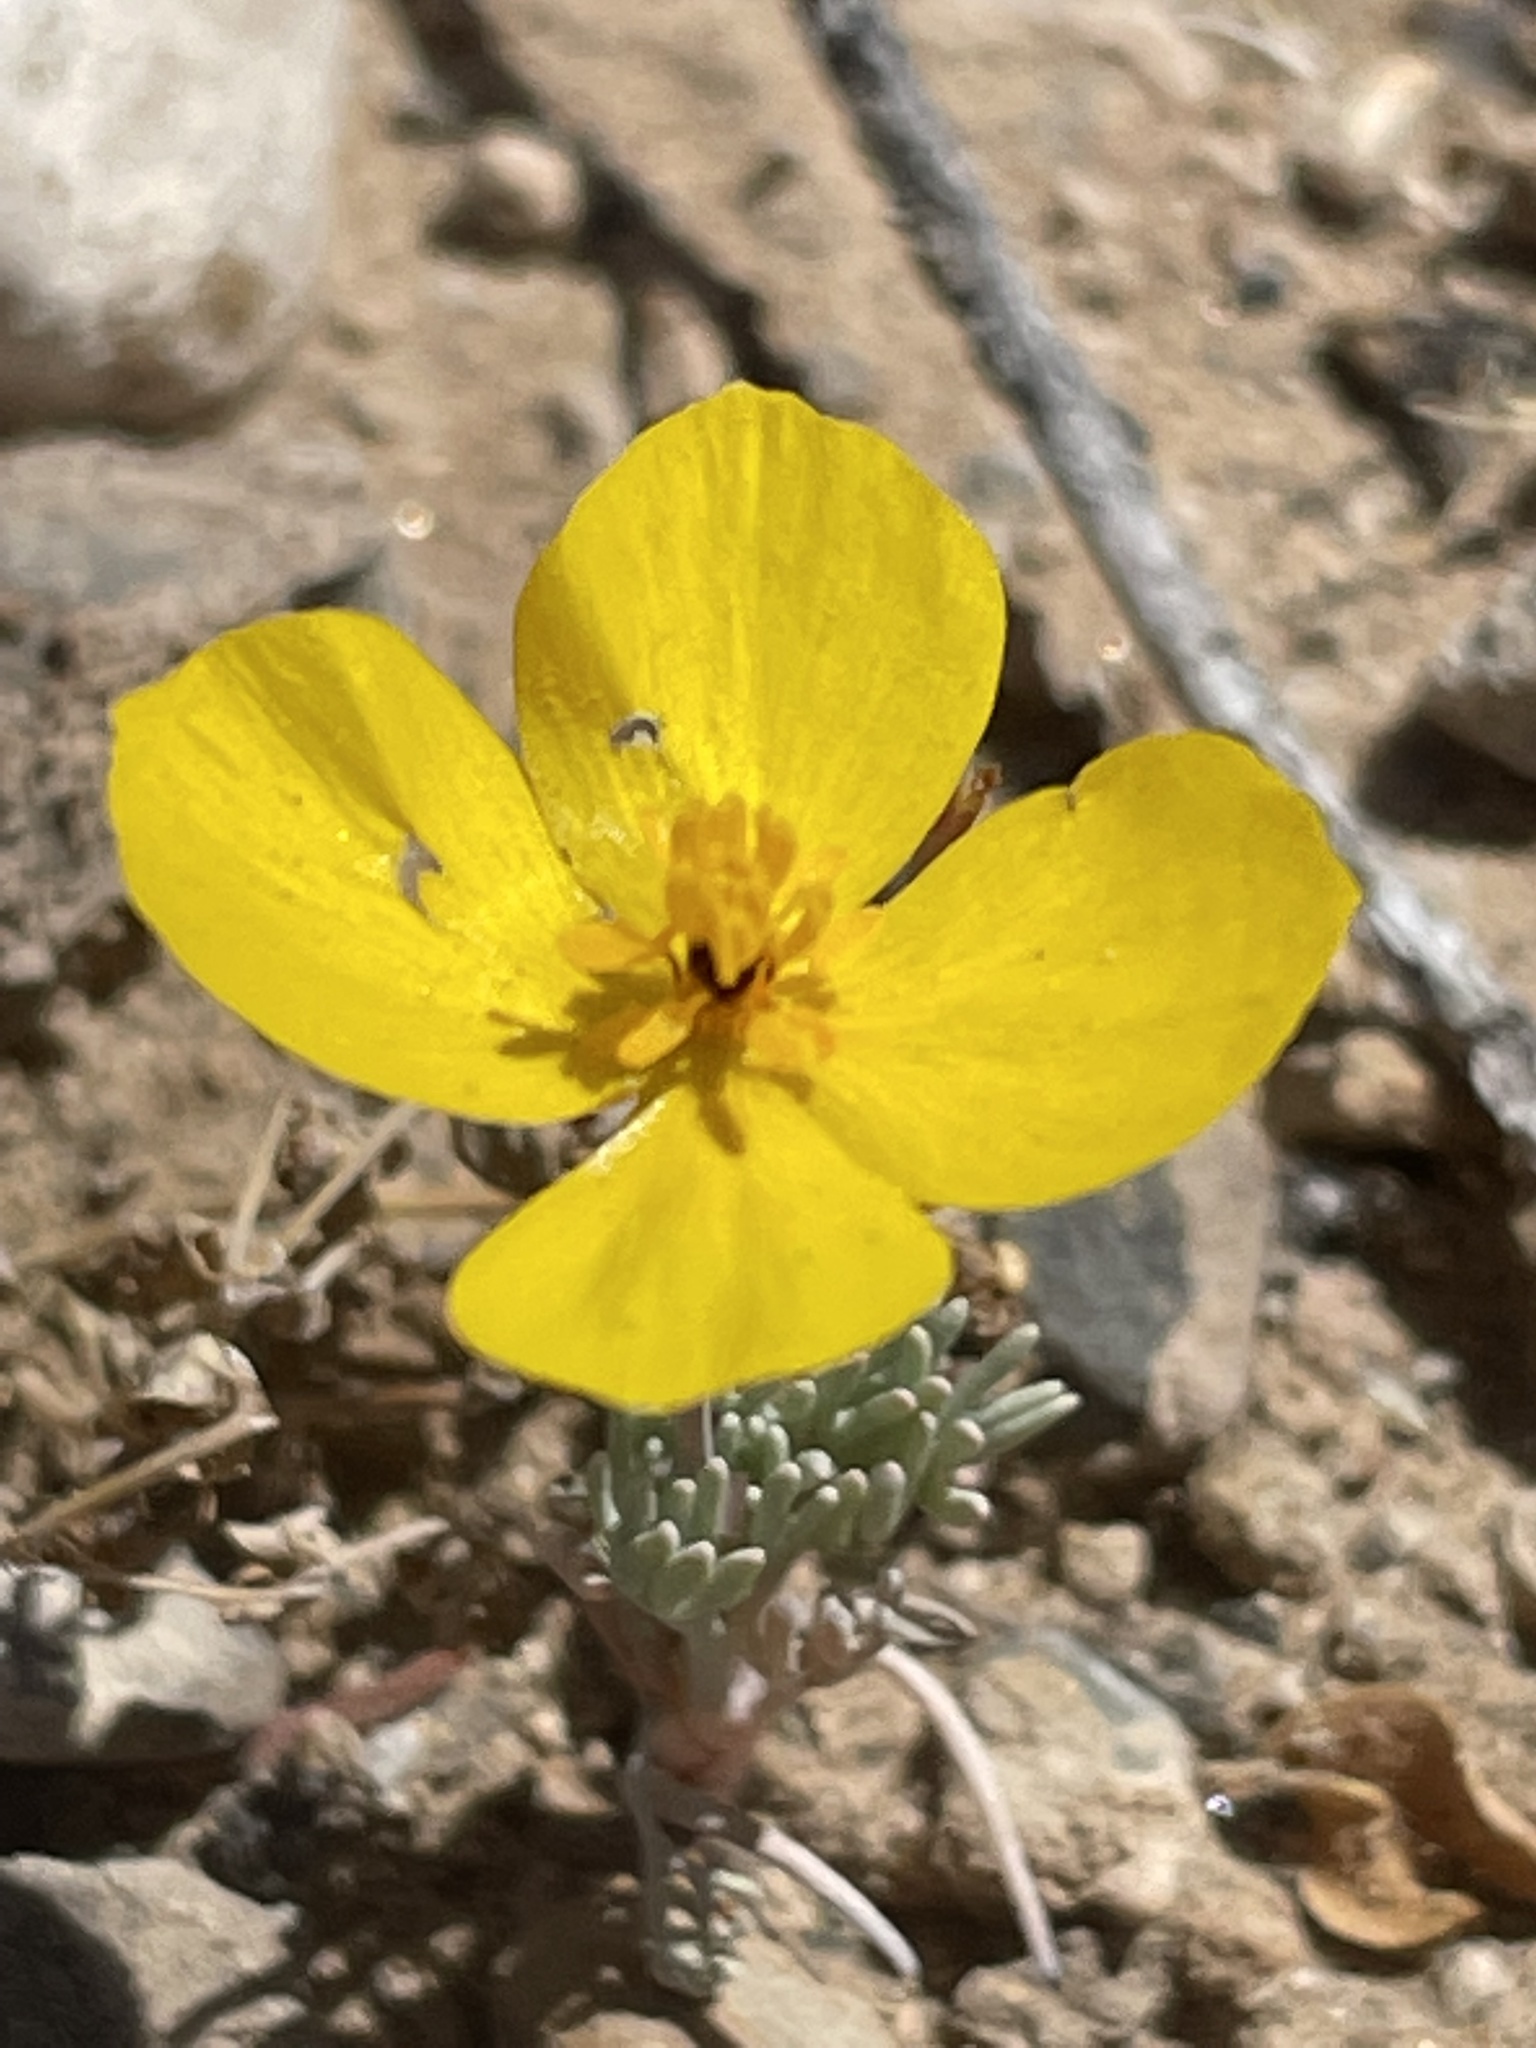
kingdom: Plantae
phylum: Tracheophyta
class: Magnoliopsida
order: Ranunculales
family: Papaveraceae
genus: Eschscholzia
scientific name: Eschscholzia glyptosperma
